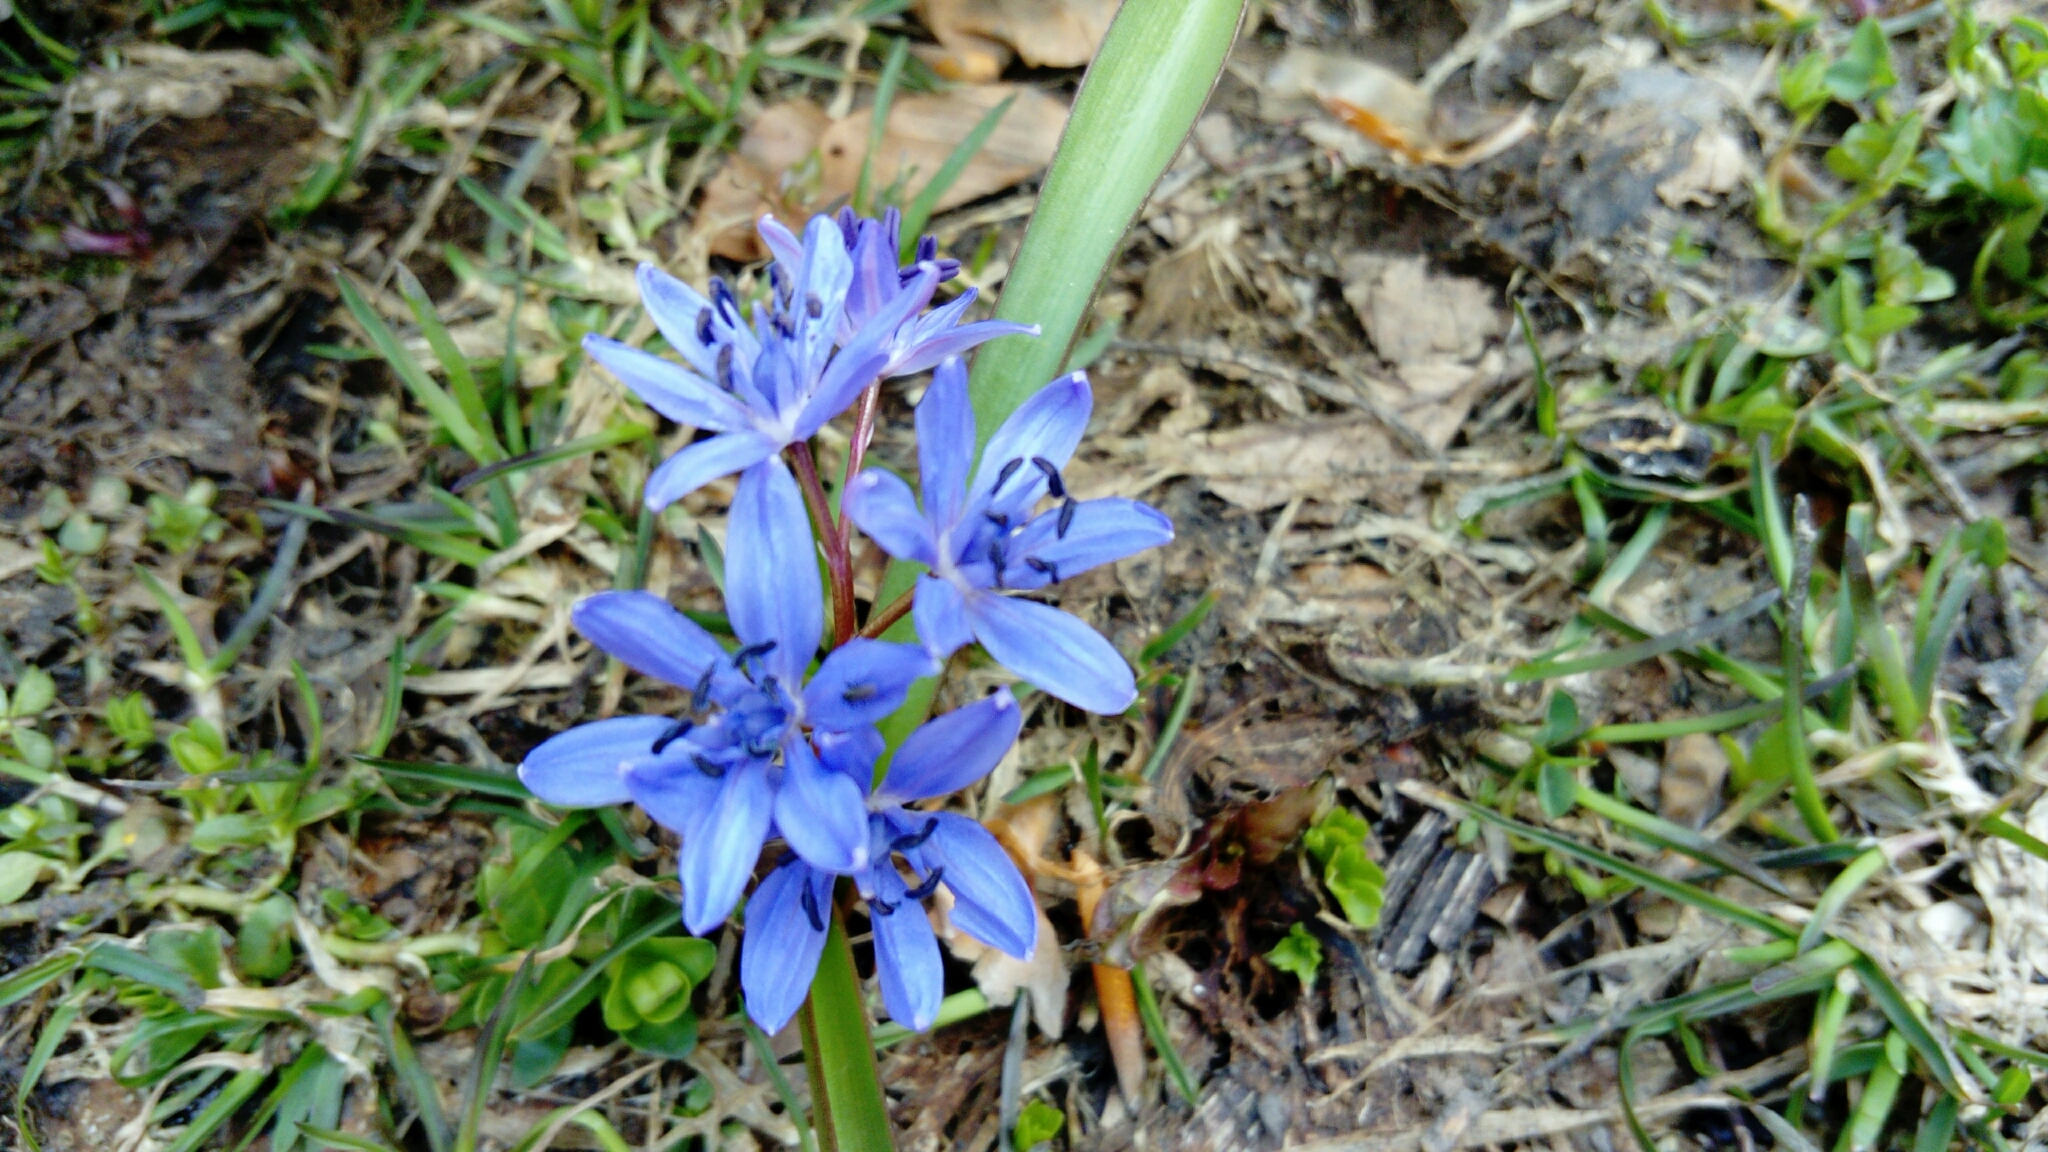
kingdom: Plantae
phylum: Tracheophyta
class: Liliopsida
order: Asparagales
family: Asparagaceae
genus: Scilla
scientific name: Scilla bifolia
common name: Alpine squill
